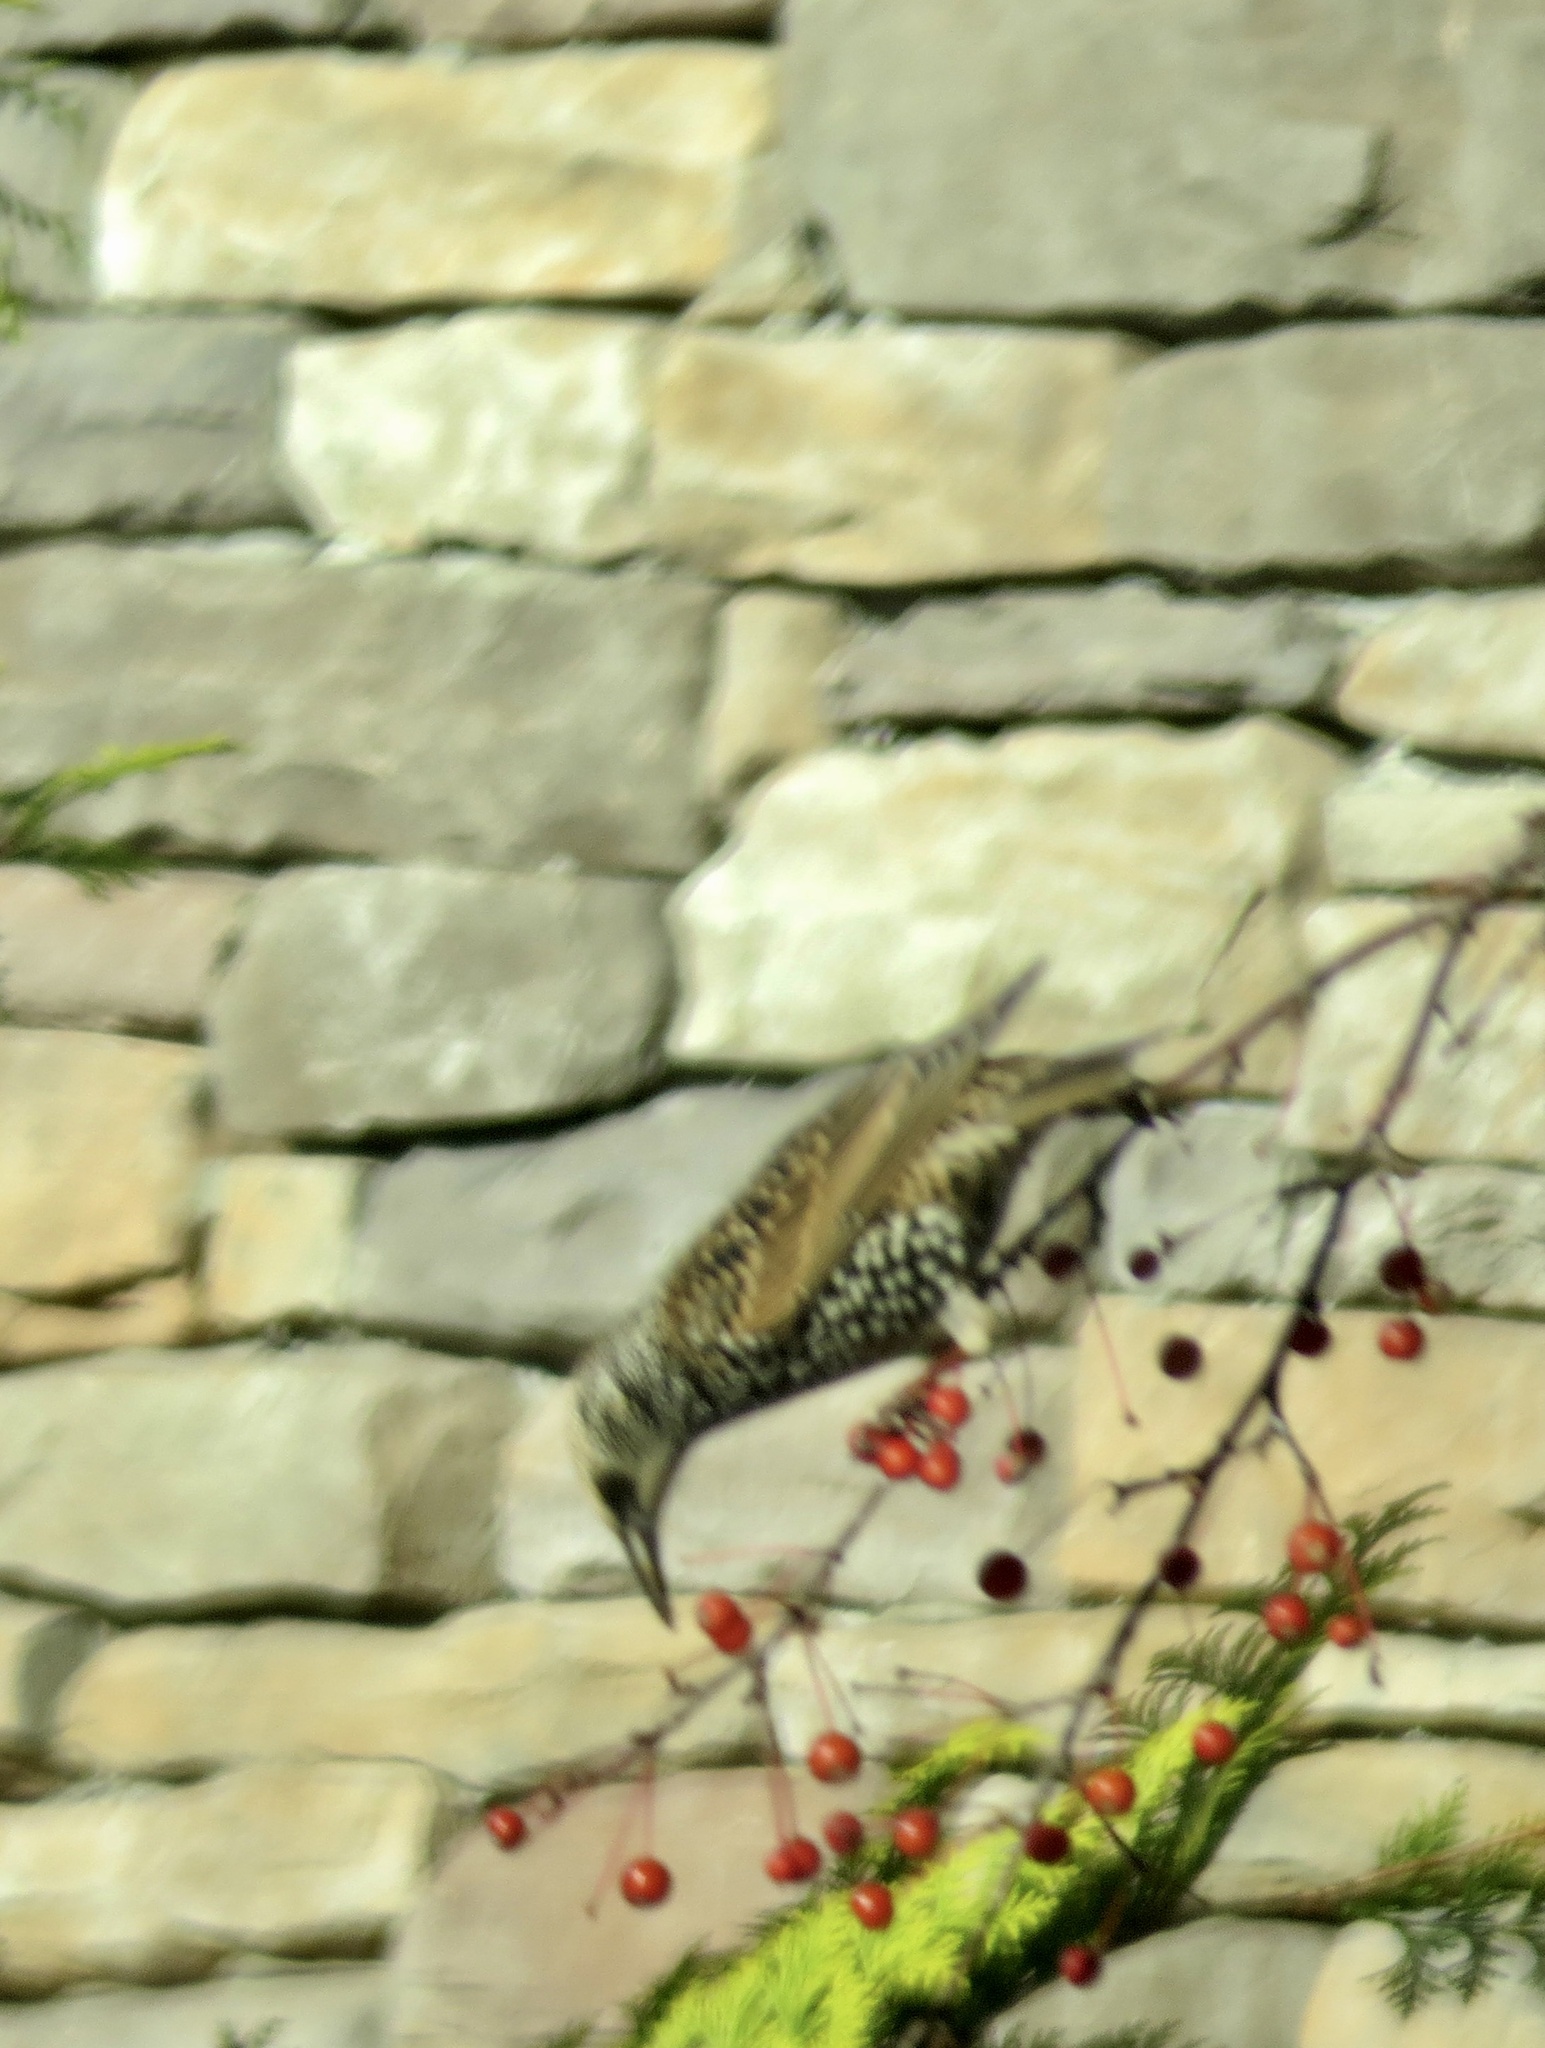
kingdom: Animalia
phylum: Chordata
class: Aves
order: Passeriformes
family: Sturnidae
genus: Sturnus
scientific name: Sturnus vulgaris
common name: Common starling
